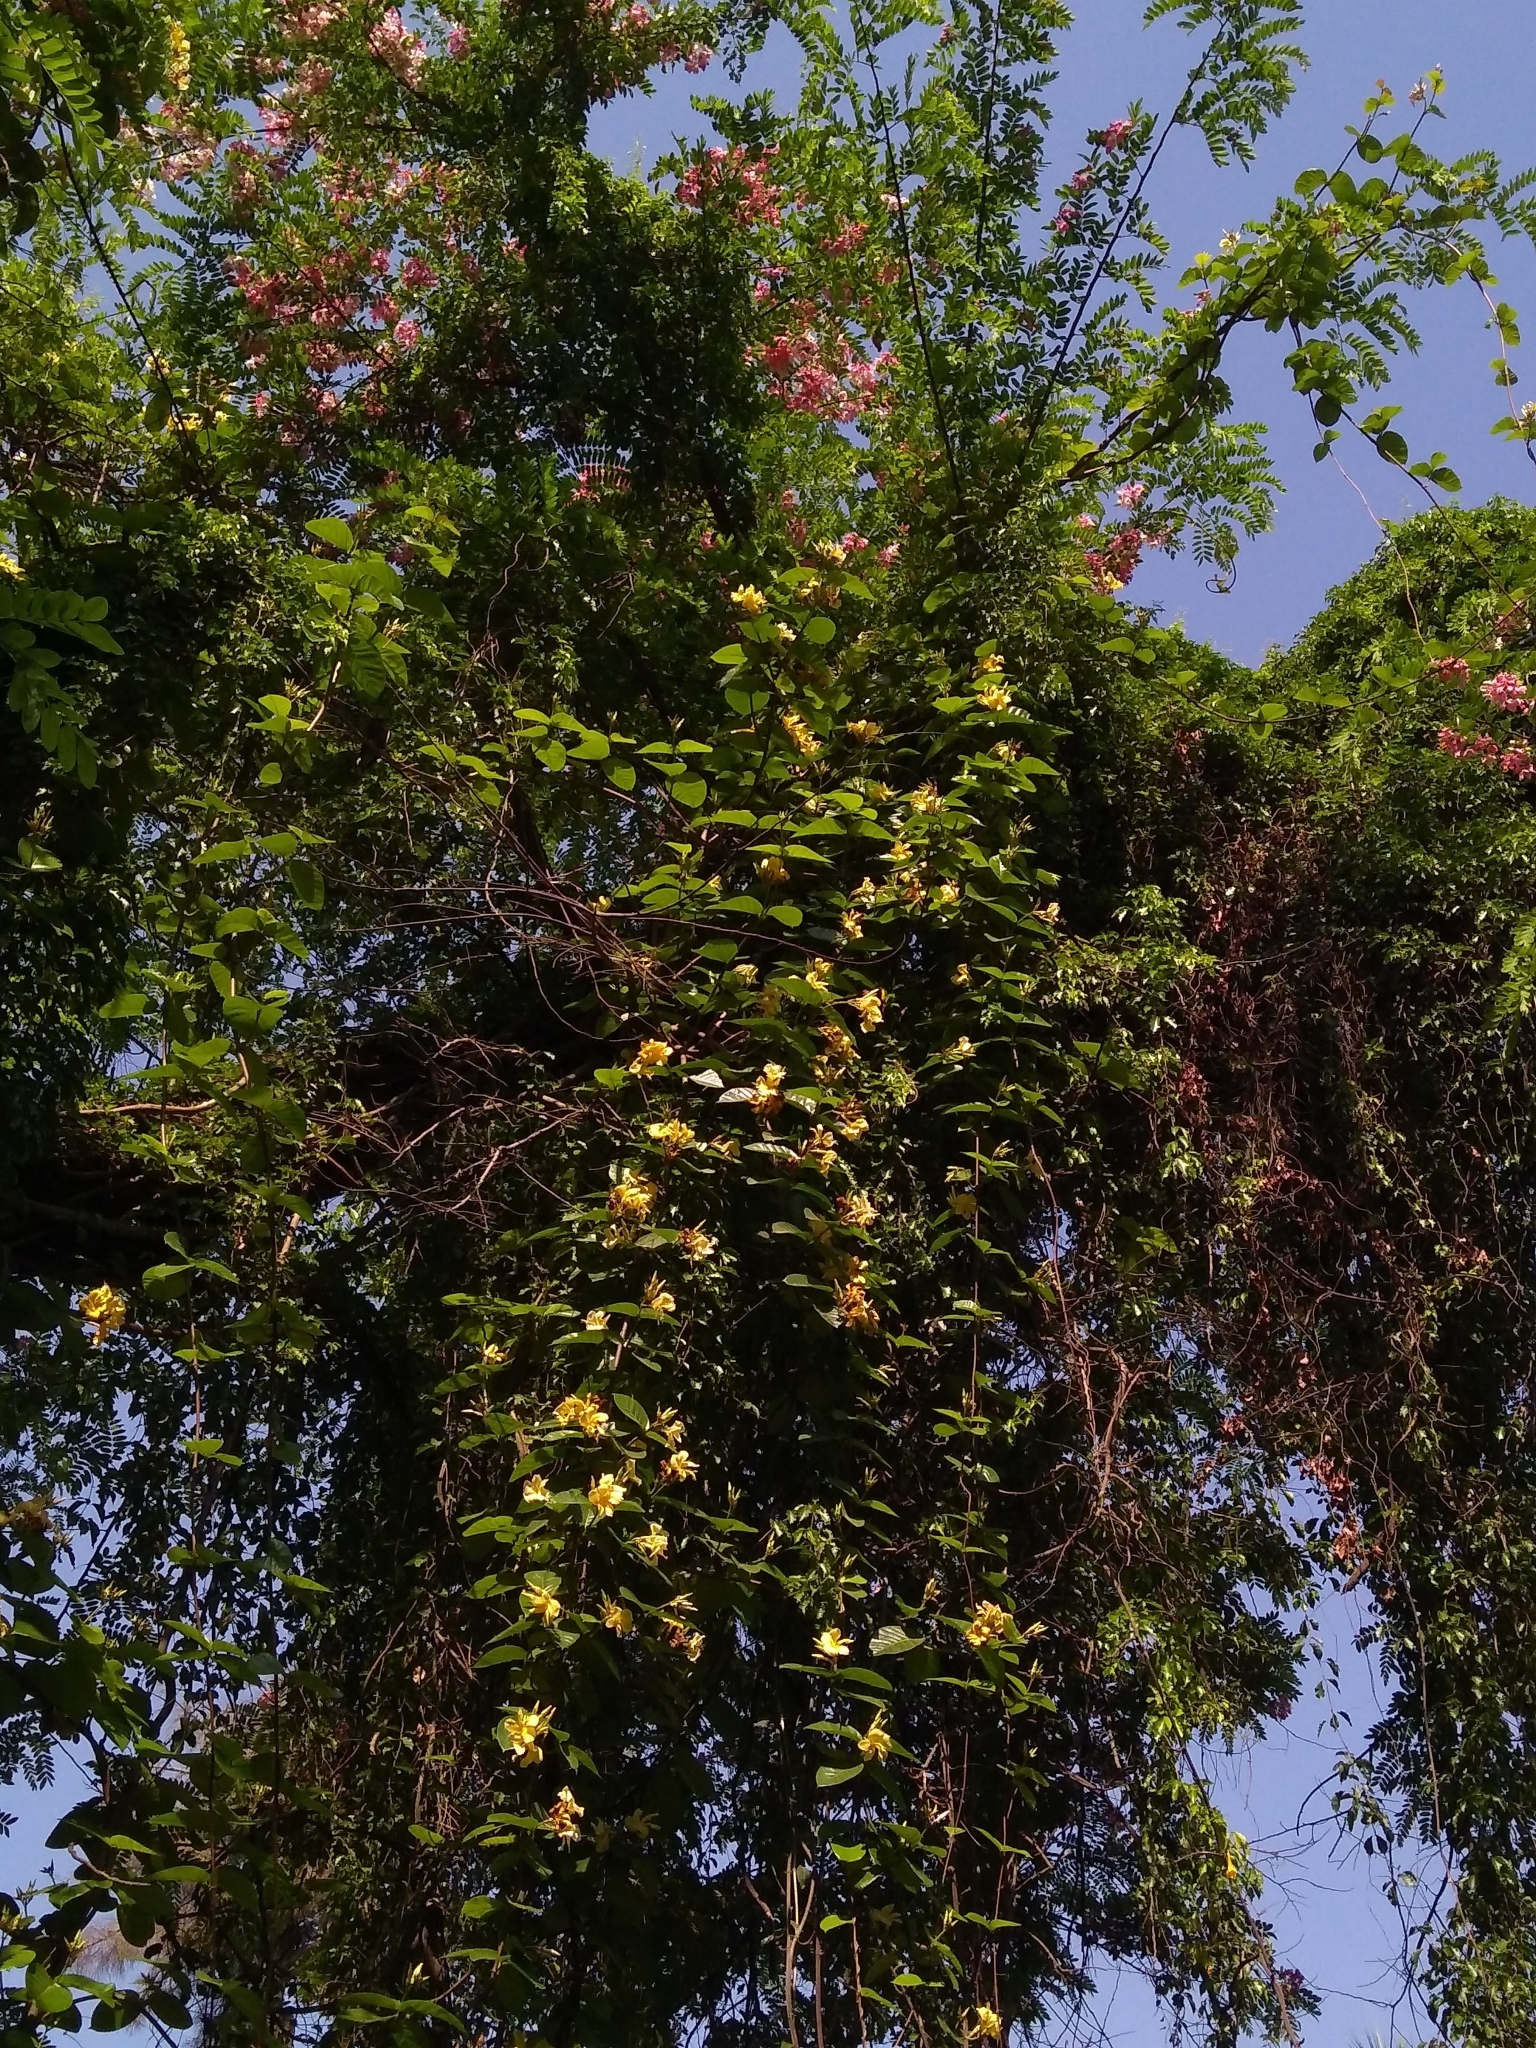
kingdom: Plantae
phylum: Tracheophyta
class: Magnoliopsida
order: Gentianales
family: Apocynaceae
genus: Chonemorpha
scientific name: Chonemorpha fragrans
